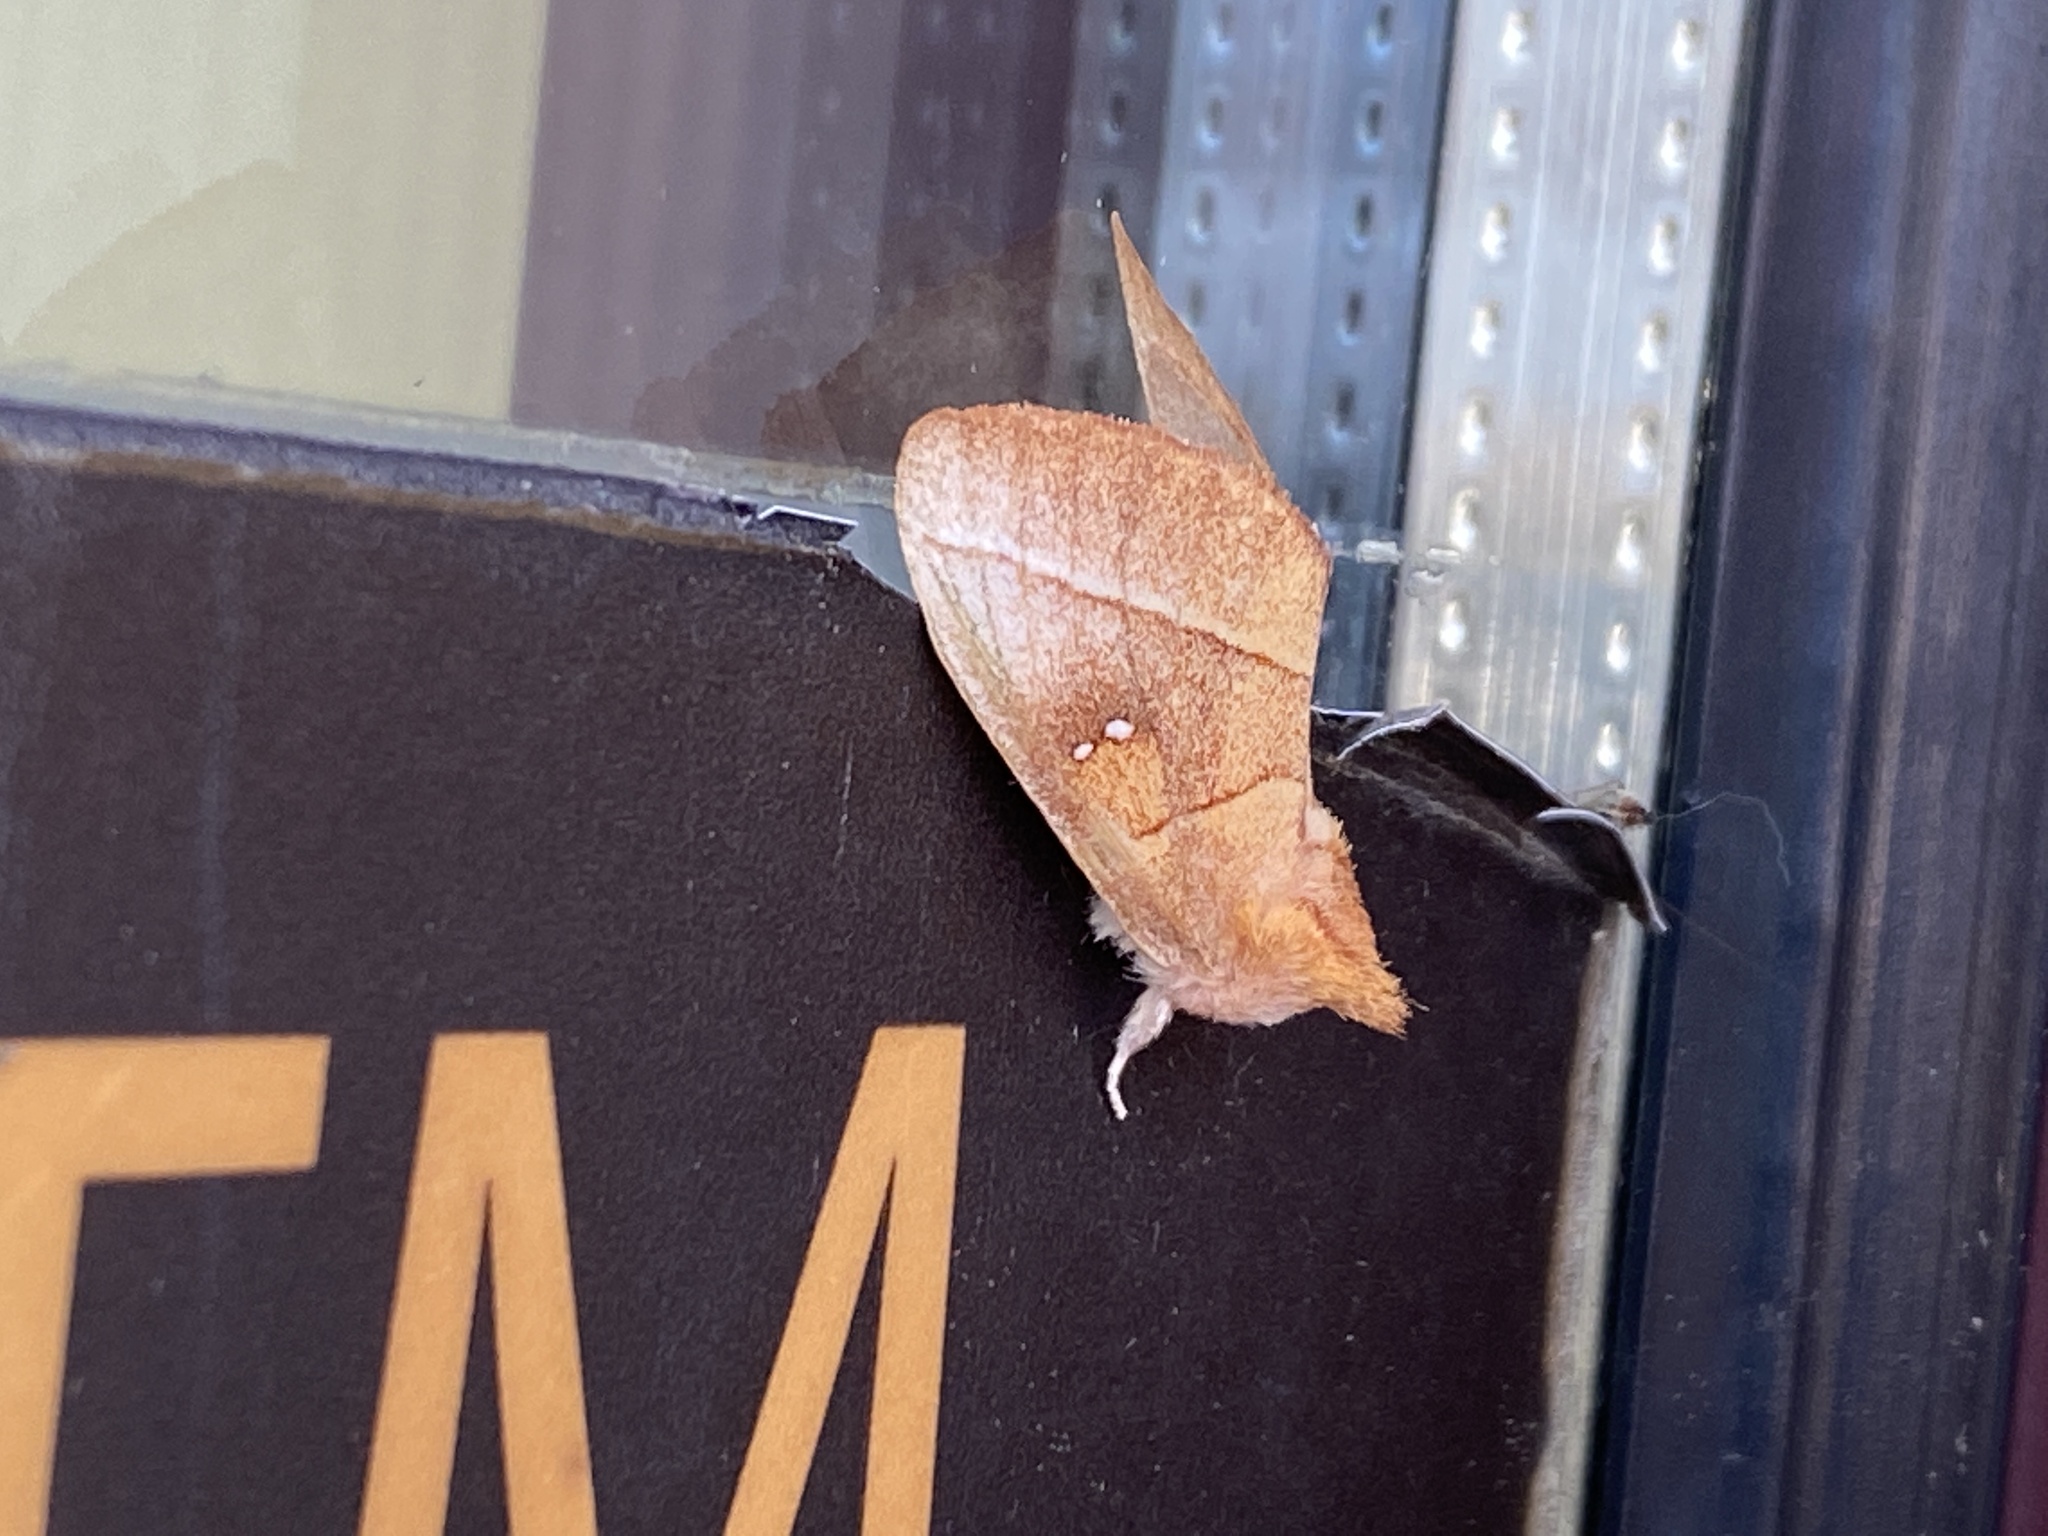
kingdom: Animalia
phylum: Arthropoda
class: Insecta
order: Lepidoptera
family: Notodontidae
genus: Nadata
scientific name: Nadata gibbosa
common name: White-dotted prominent
